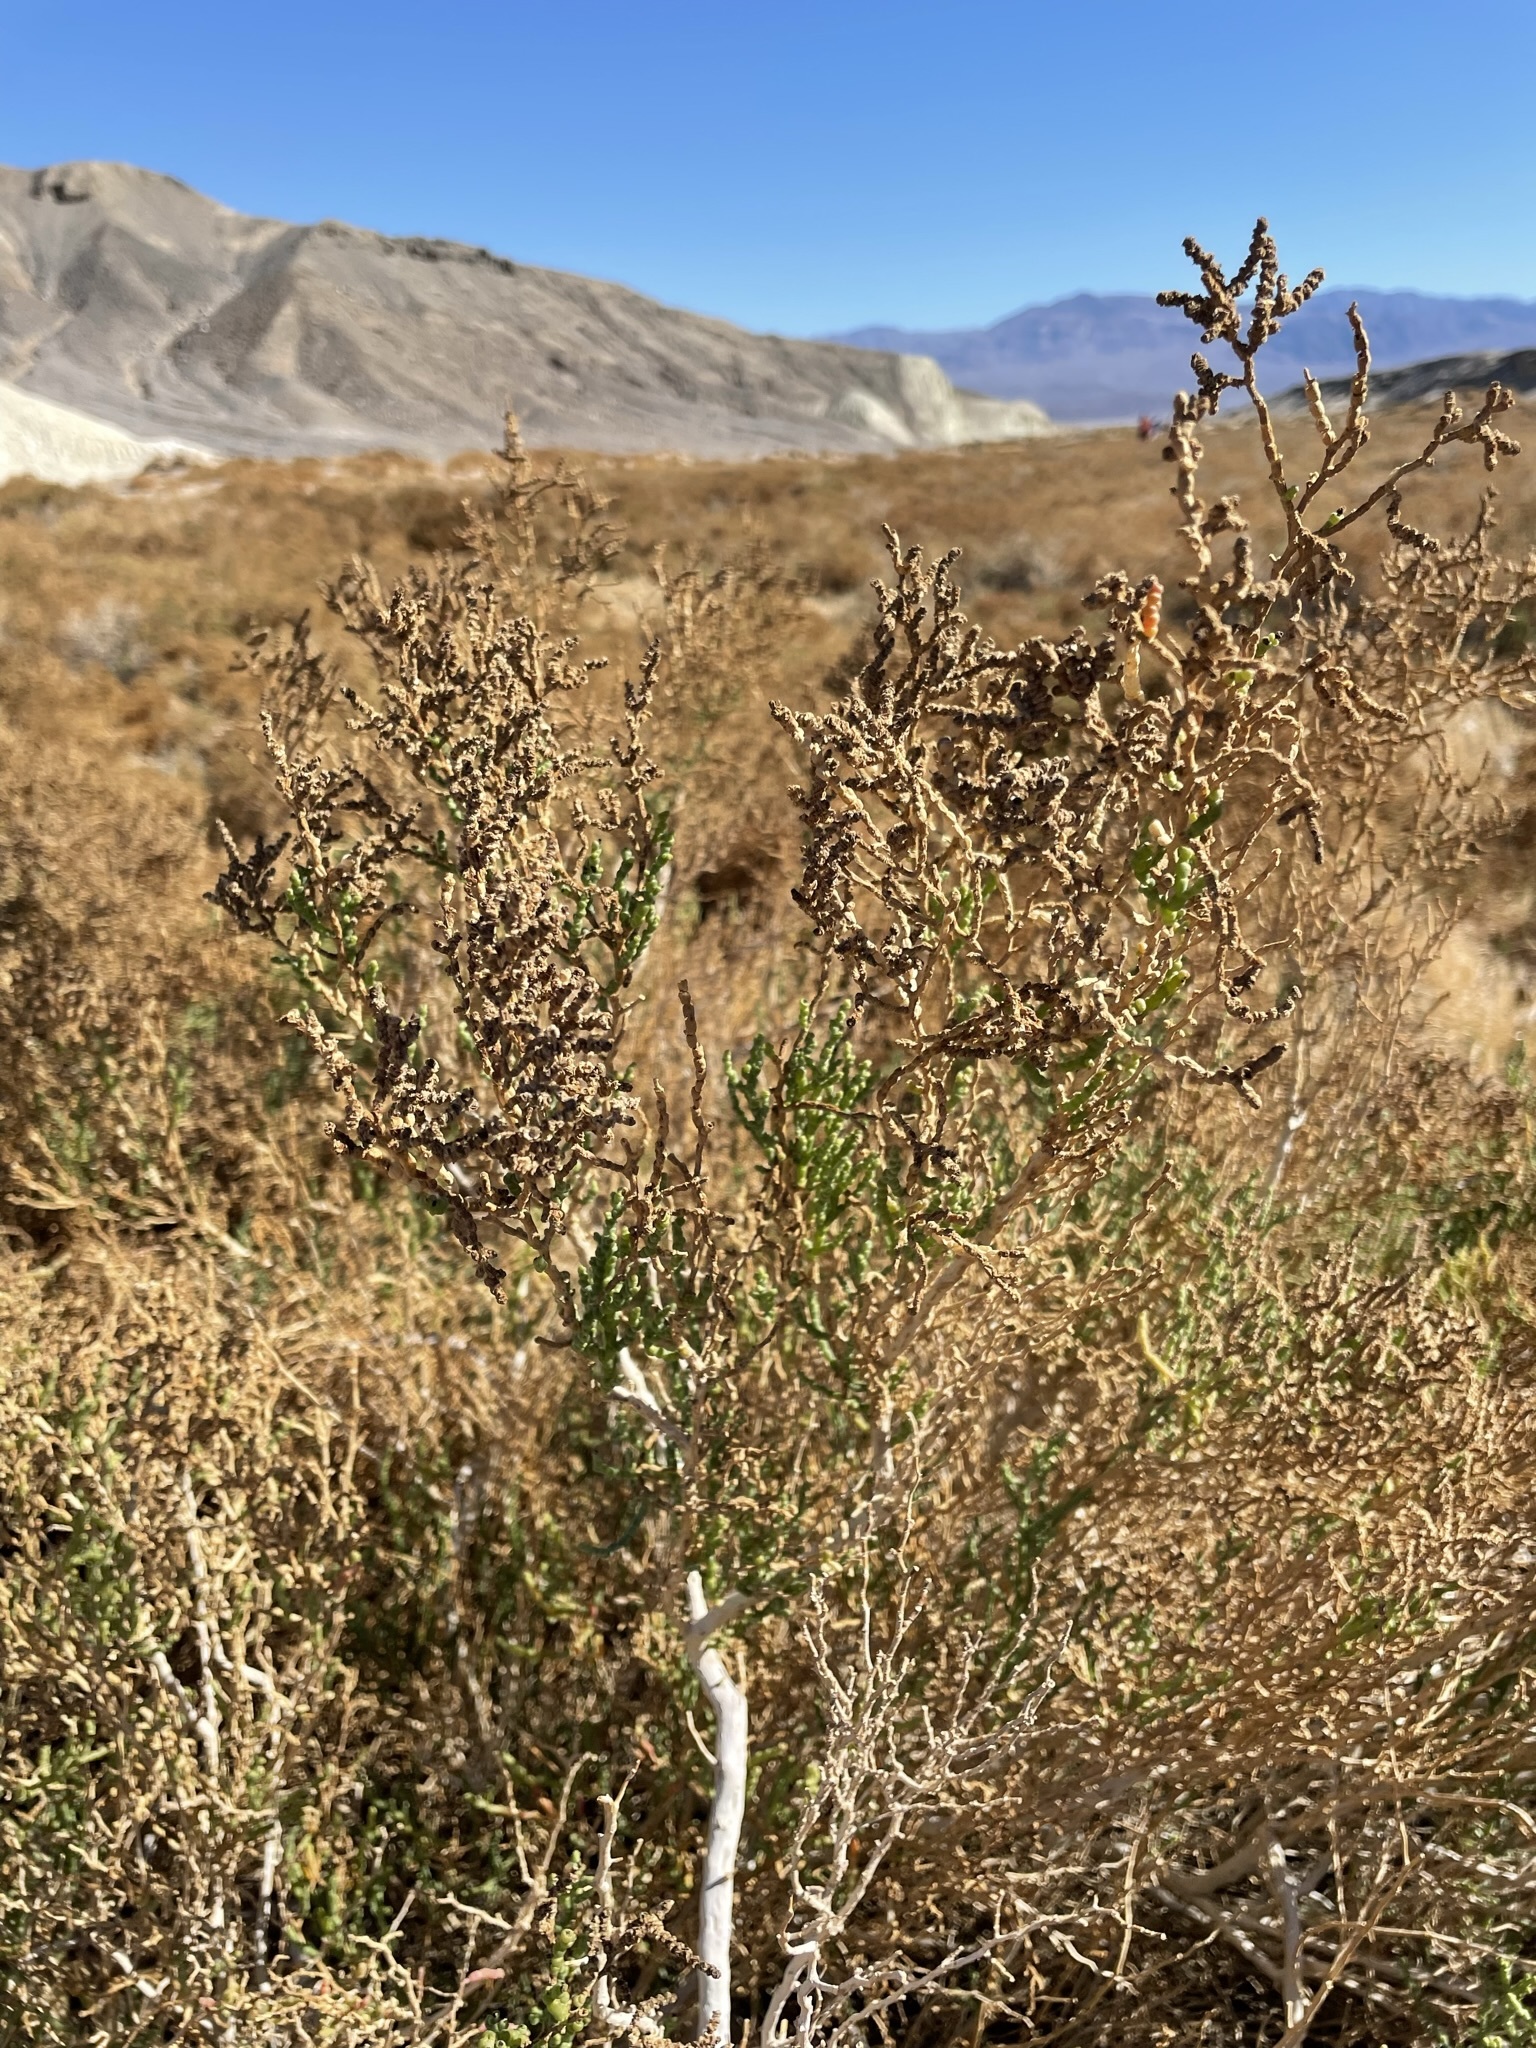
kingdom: Plantae
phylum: Tracheophyta
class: Magnoliopsida
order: Caryophyllales
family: Amaranthaceae
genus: Allenrolfea
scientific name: Allenrolfea occidentalis
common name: Iodine-bush
